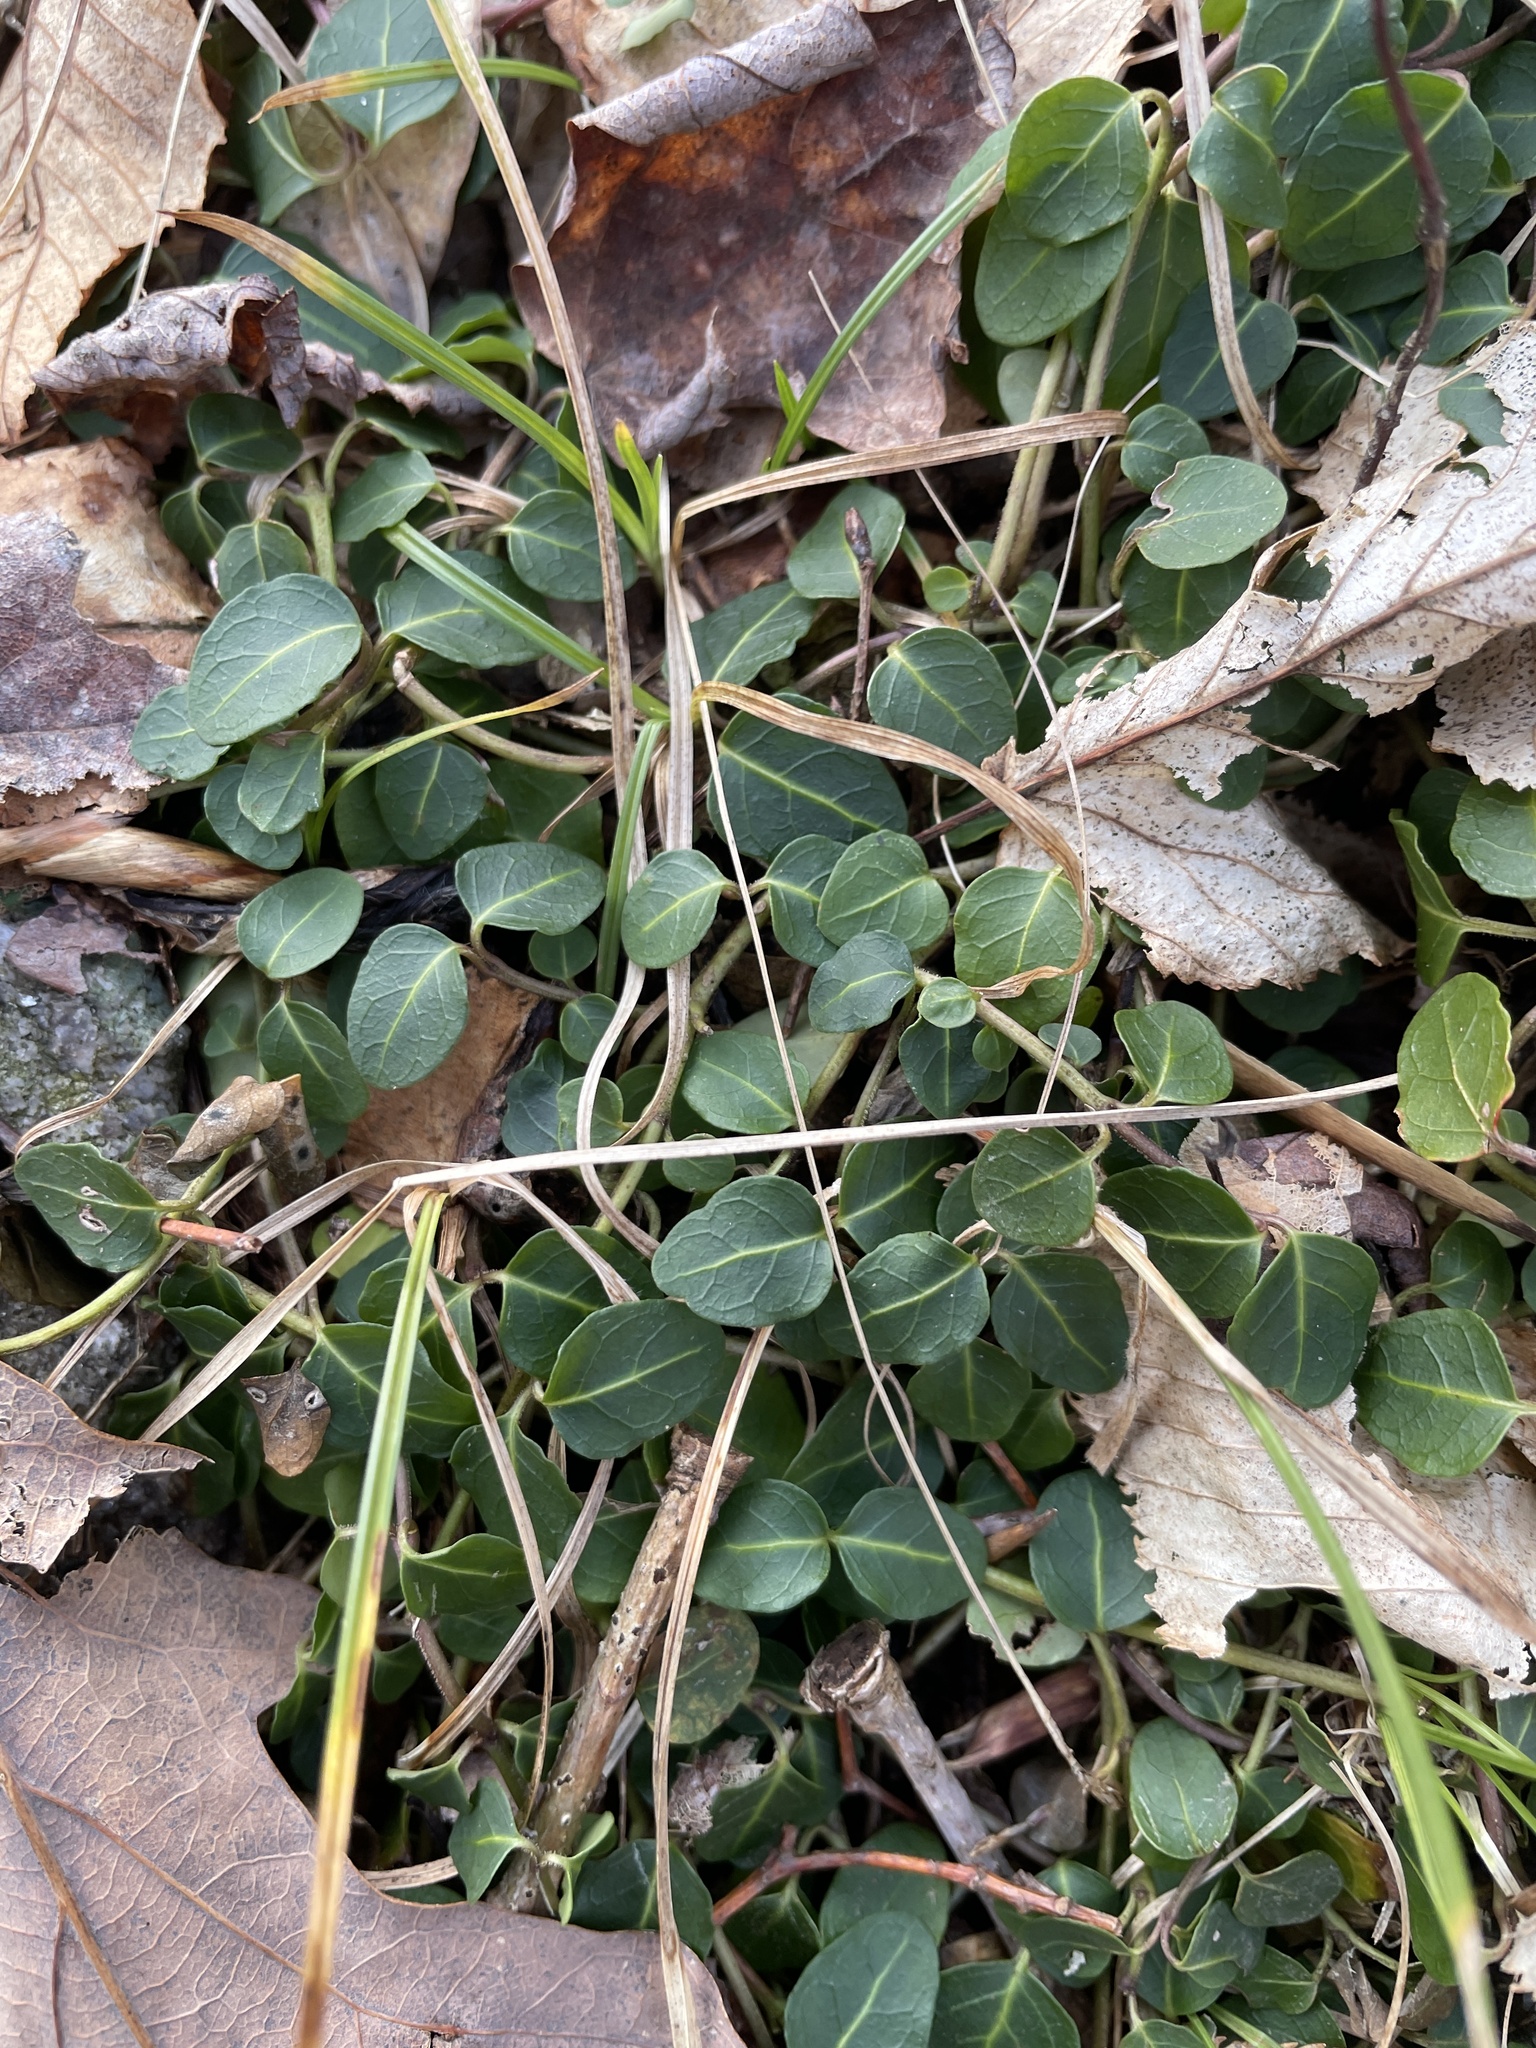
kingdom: Plantae
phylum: Tracheophyta
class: Magnoliopsida
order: Gentianales
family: Rubiaceae
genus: Mitchella
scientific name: Mitchella repens
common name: Partridge-berry
